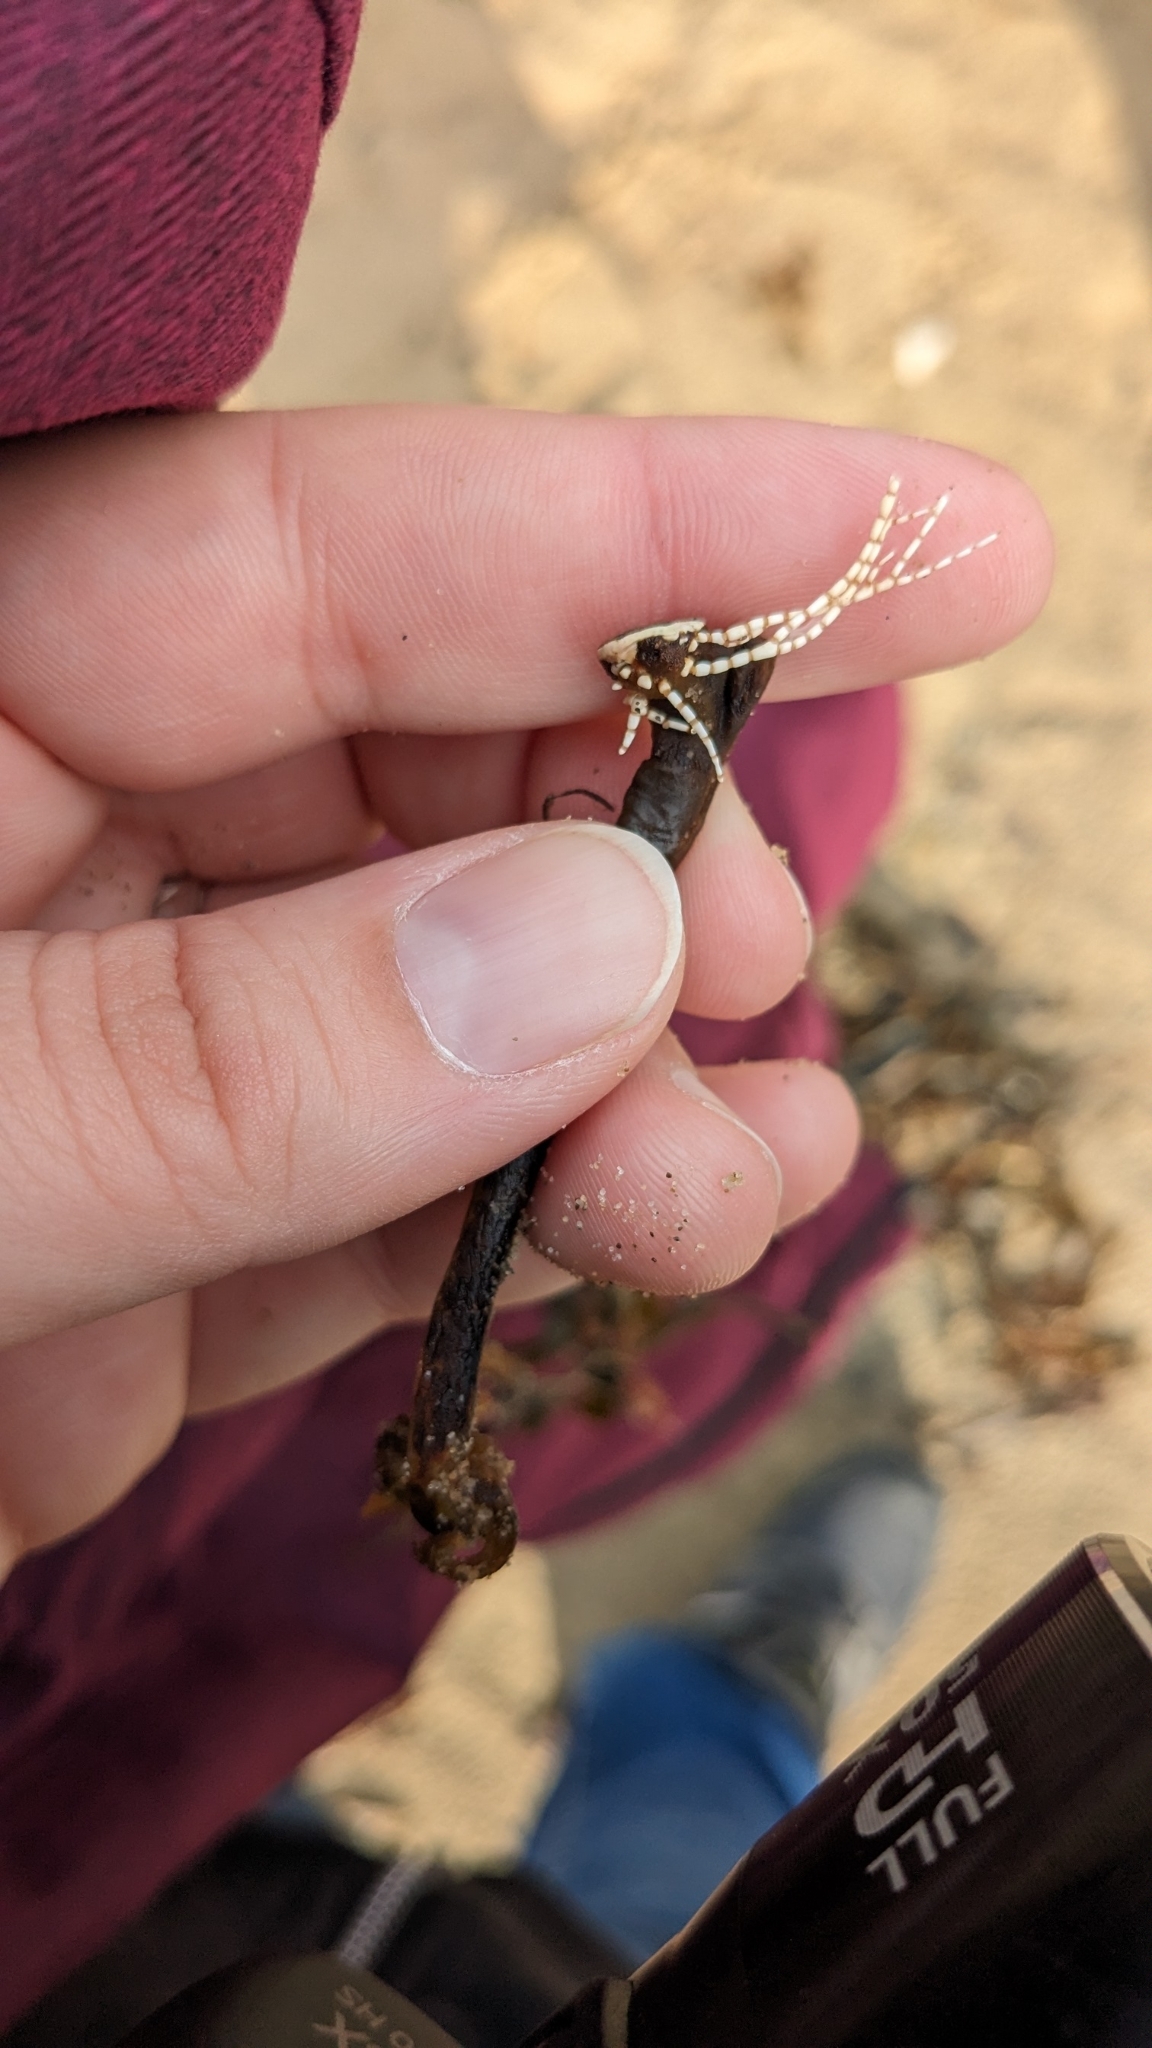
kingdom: Plantae
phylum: Rhodophyta
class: Florideophyceae
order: Corallinales
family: Corallinaceae
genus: Corallina
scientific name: Corallina officinalis
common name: Coral weed
